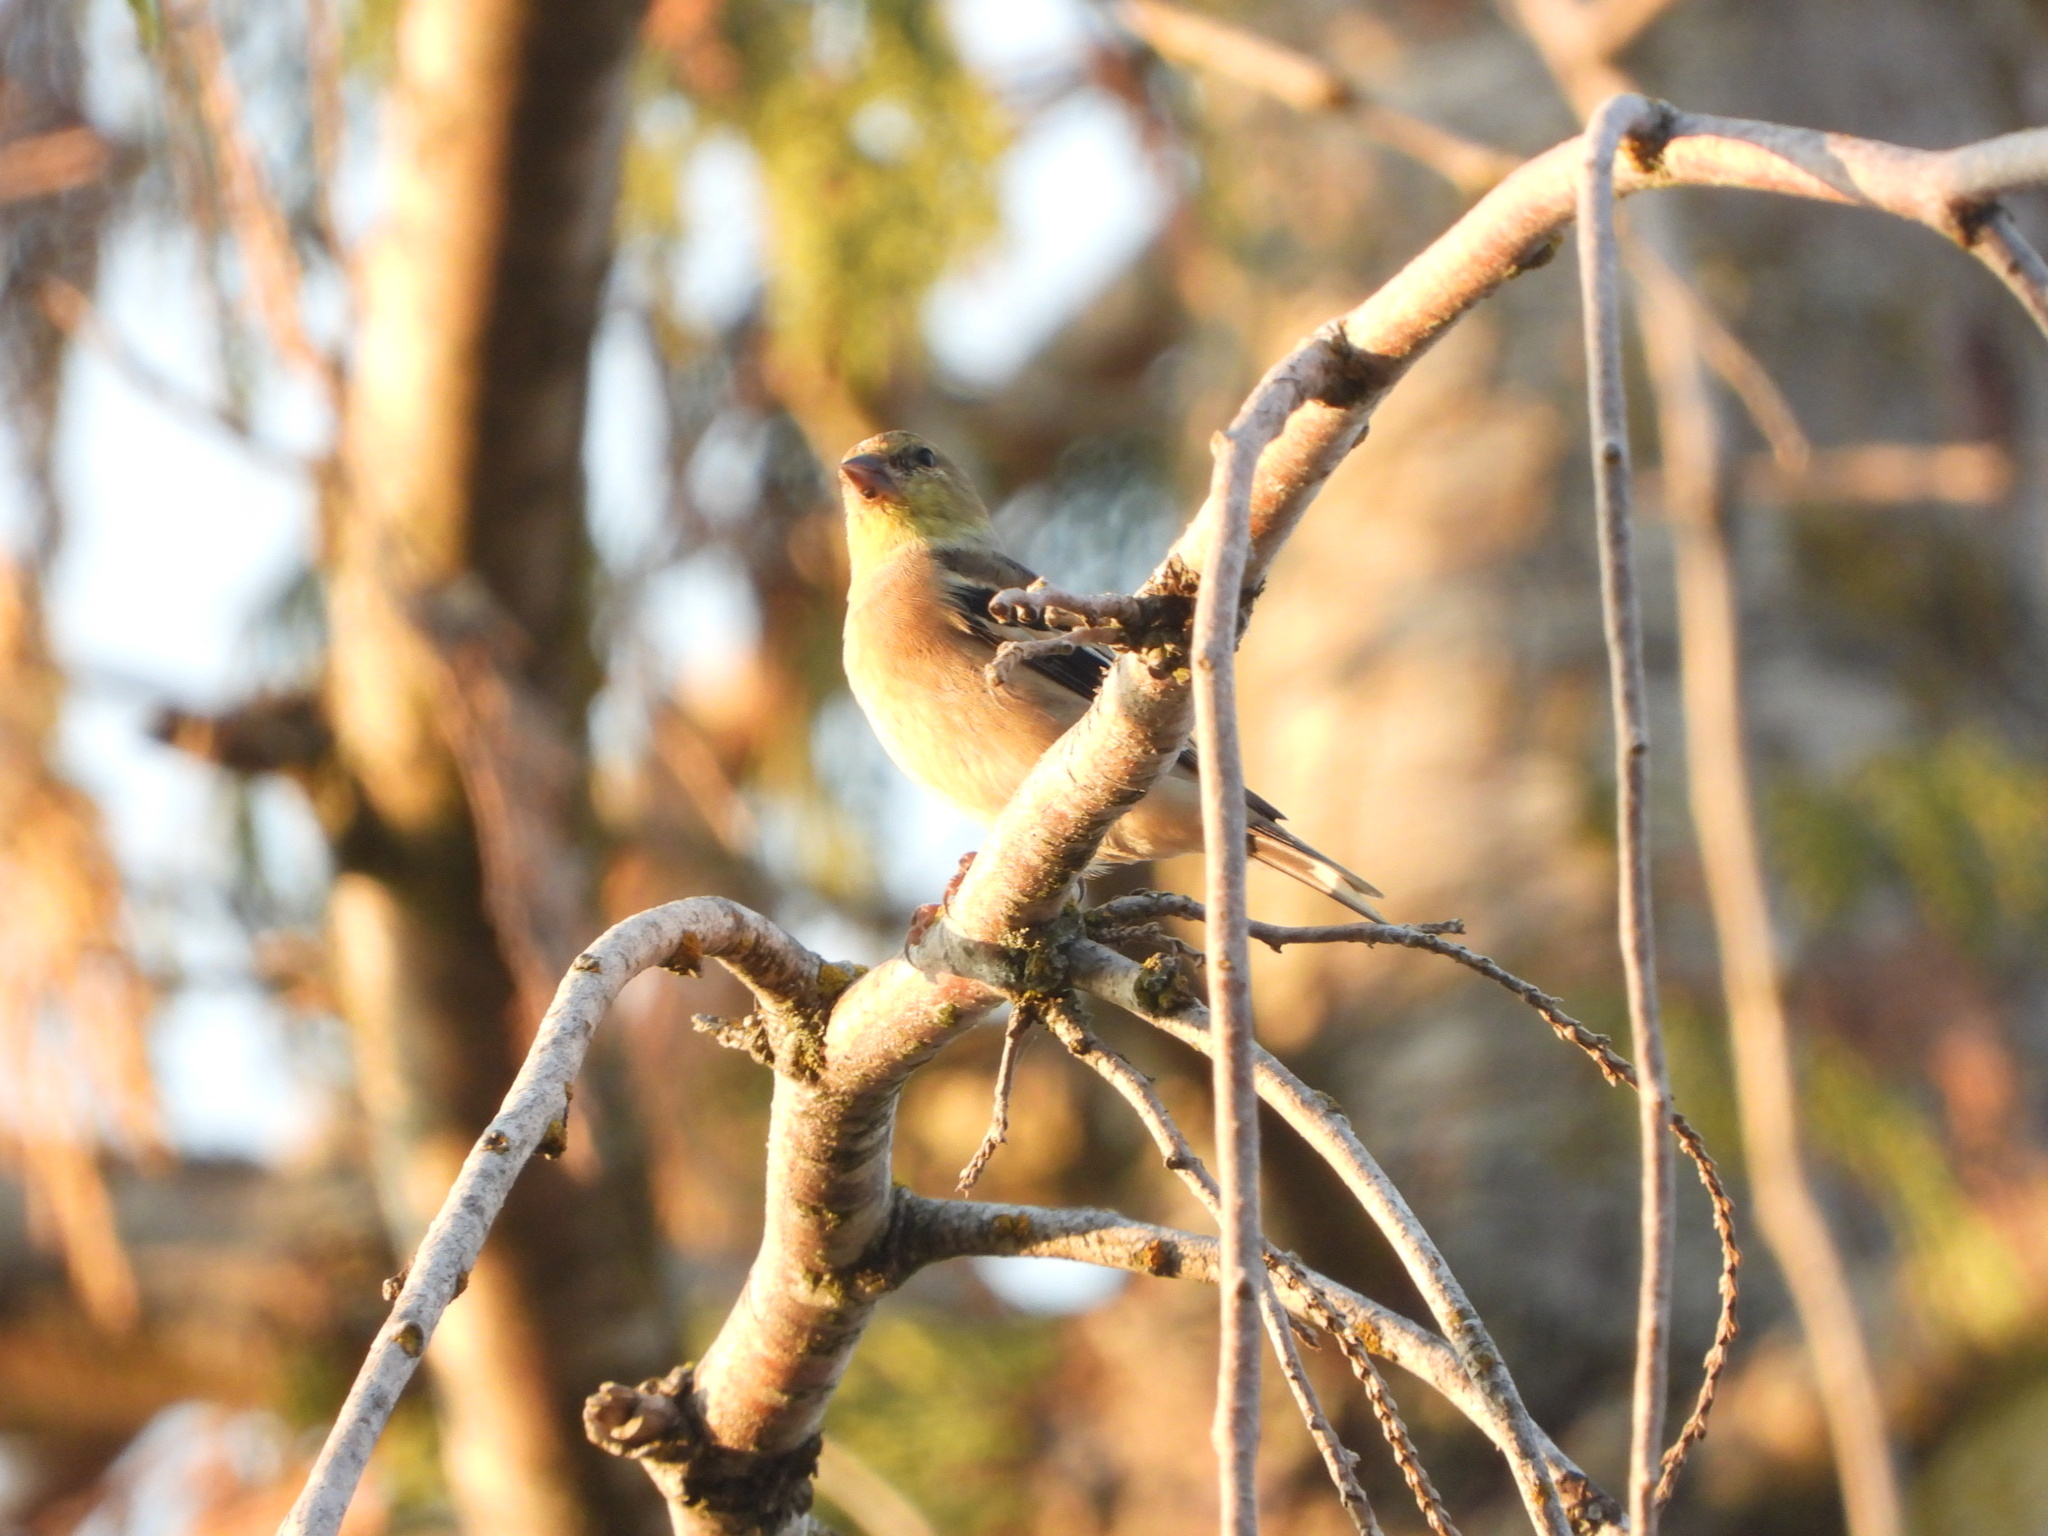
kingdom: Animalia
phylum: Chordata
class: Aves
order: Passeriformes
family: Fringillidae
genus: Spinus
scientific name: Spinus tristis
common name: American goldfinch
